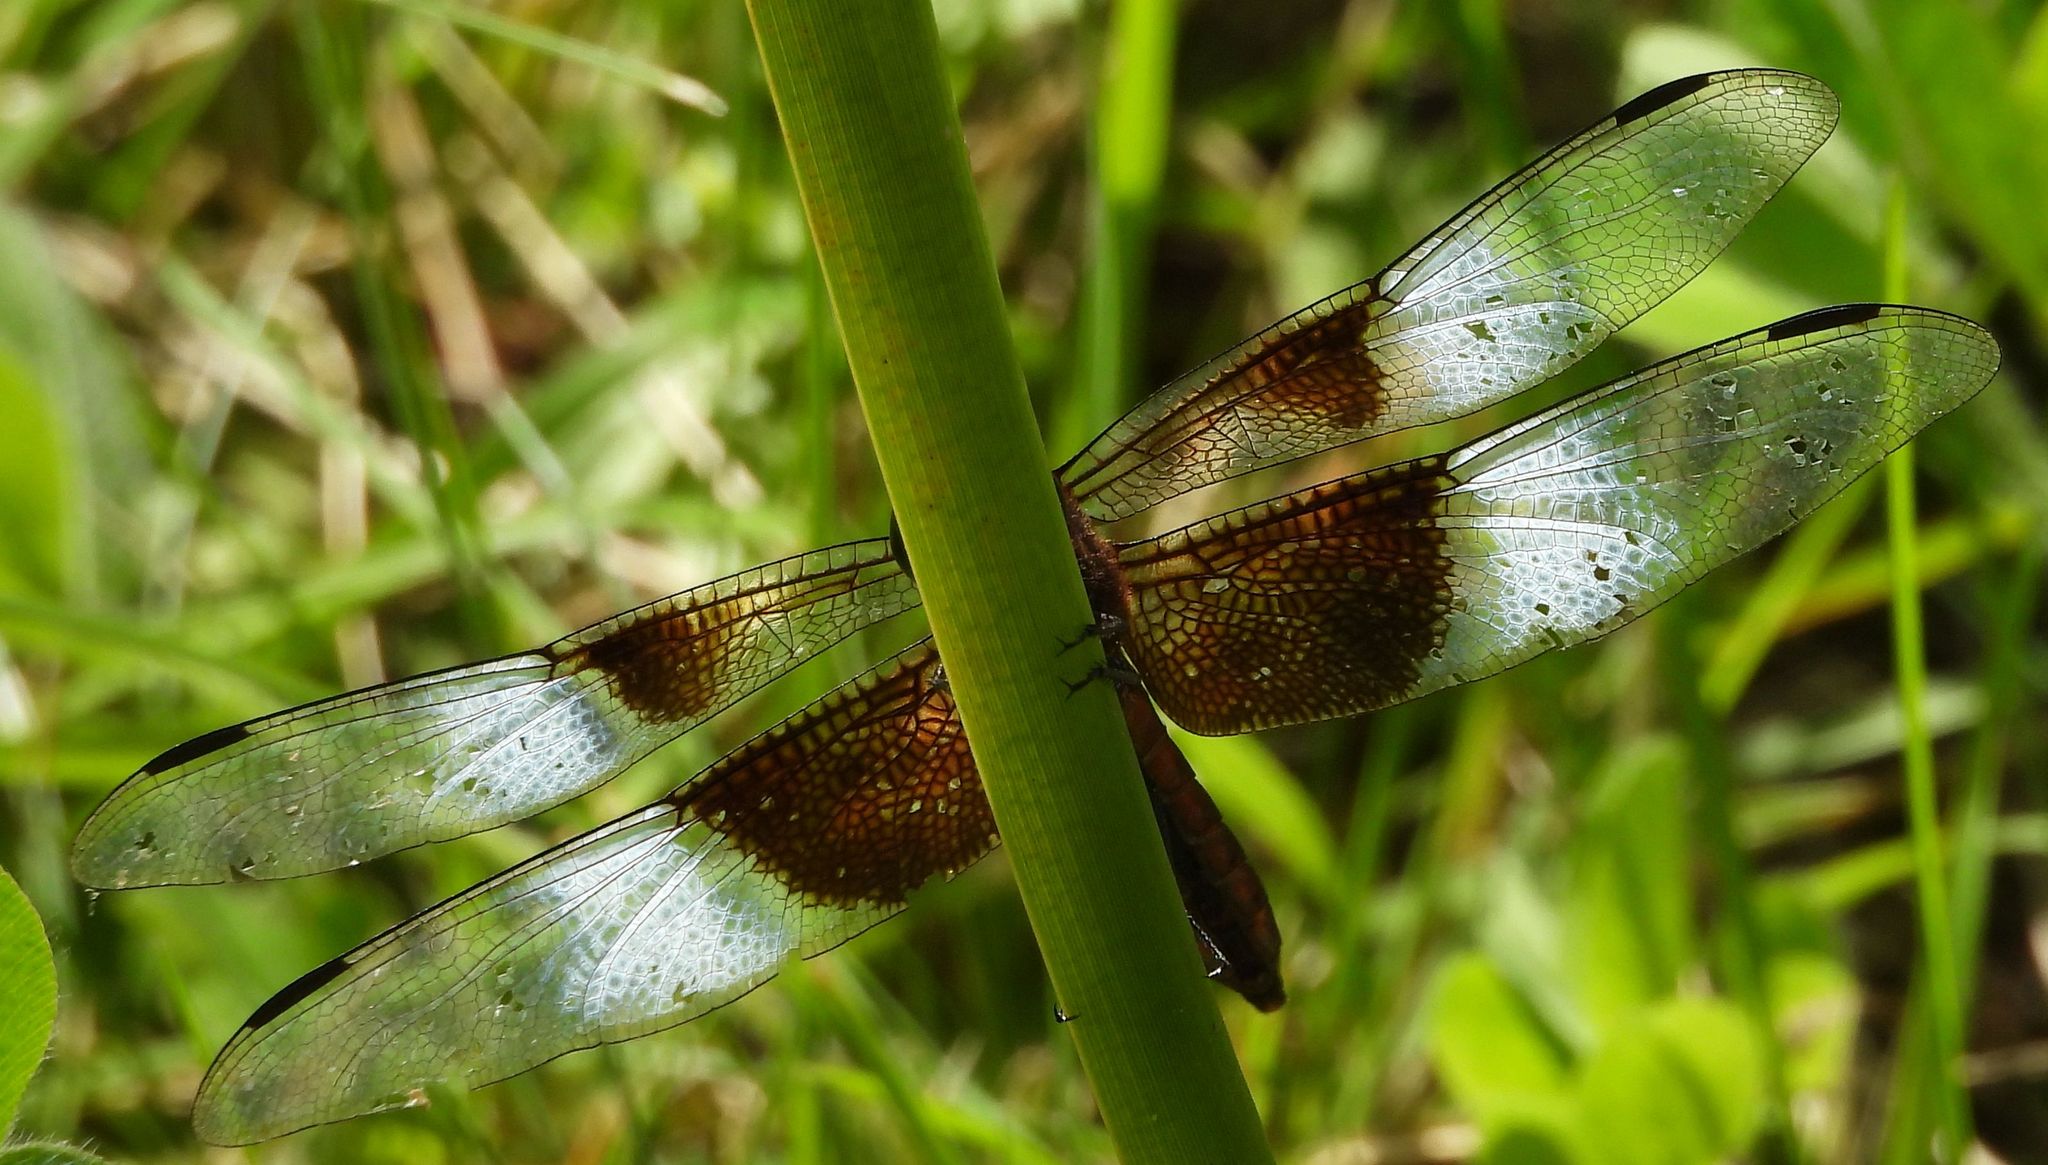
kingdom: Animalia
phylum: Arthropoda
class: Insecta
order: Odonata
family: Libellulidae
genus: Libellula
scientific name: Libellula luctuosa
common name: Widow skimmer
